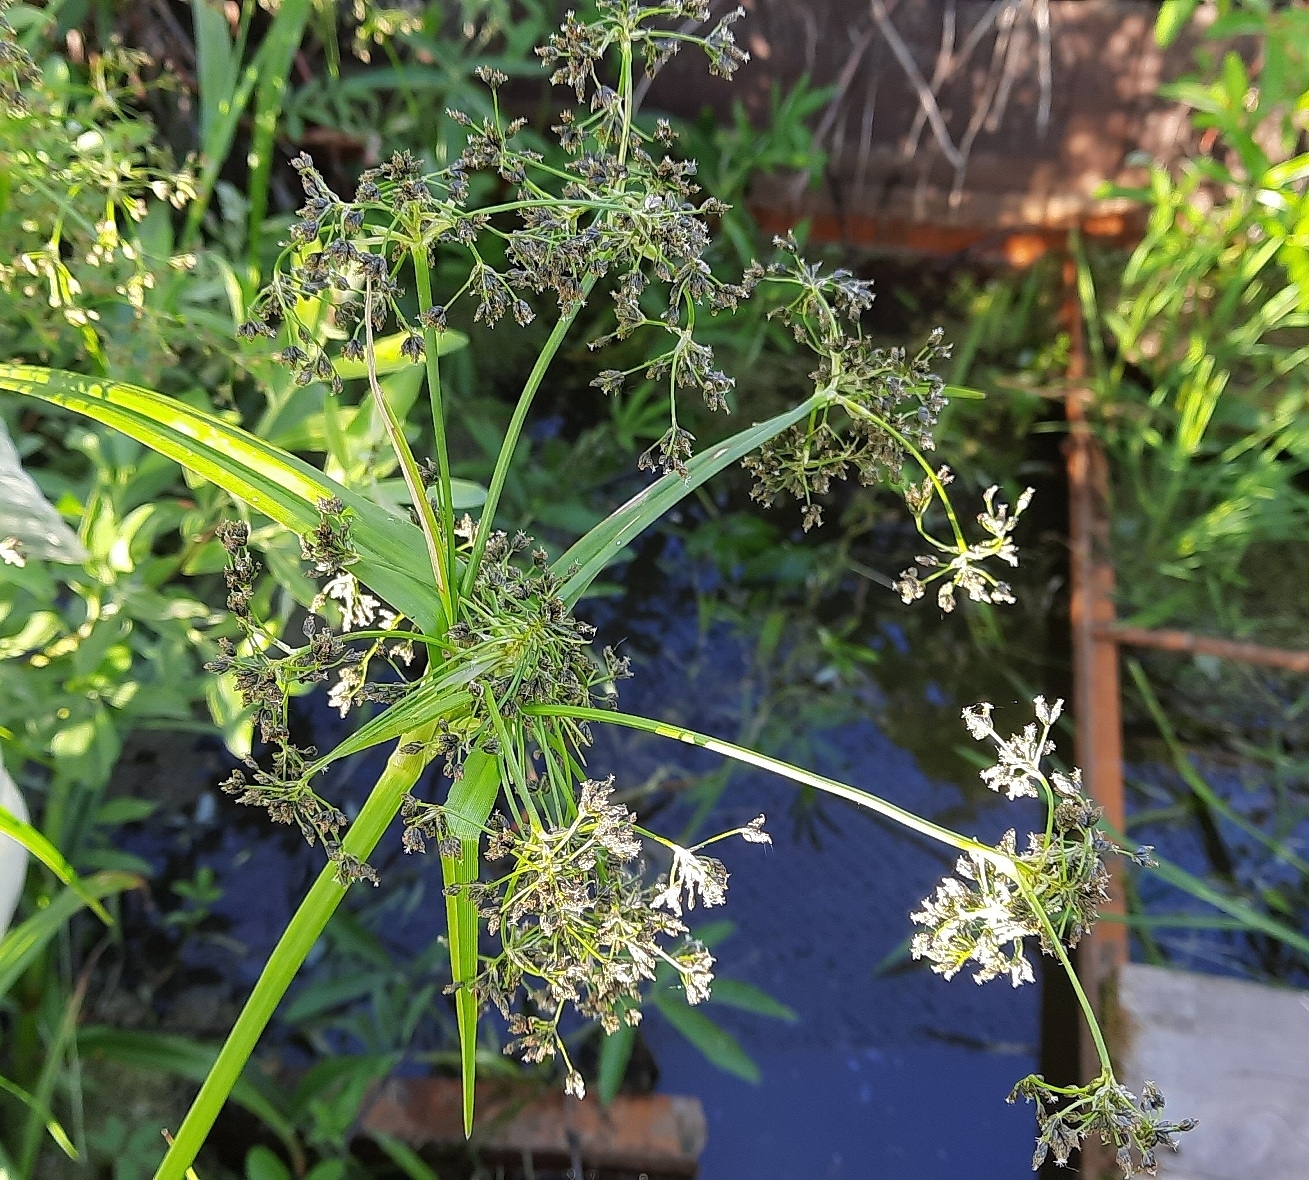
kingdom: Plantae
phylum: Tracheophyta
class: Liliopsida
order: Poales
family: Cyperaceae
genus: Scirpus
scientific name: Scirpus sylvaticus
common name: Wood club-rush
